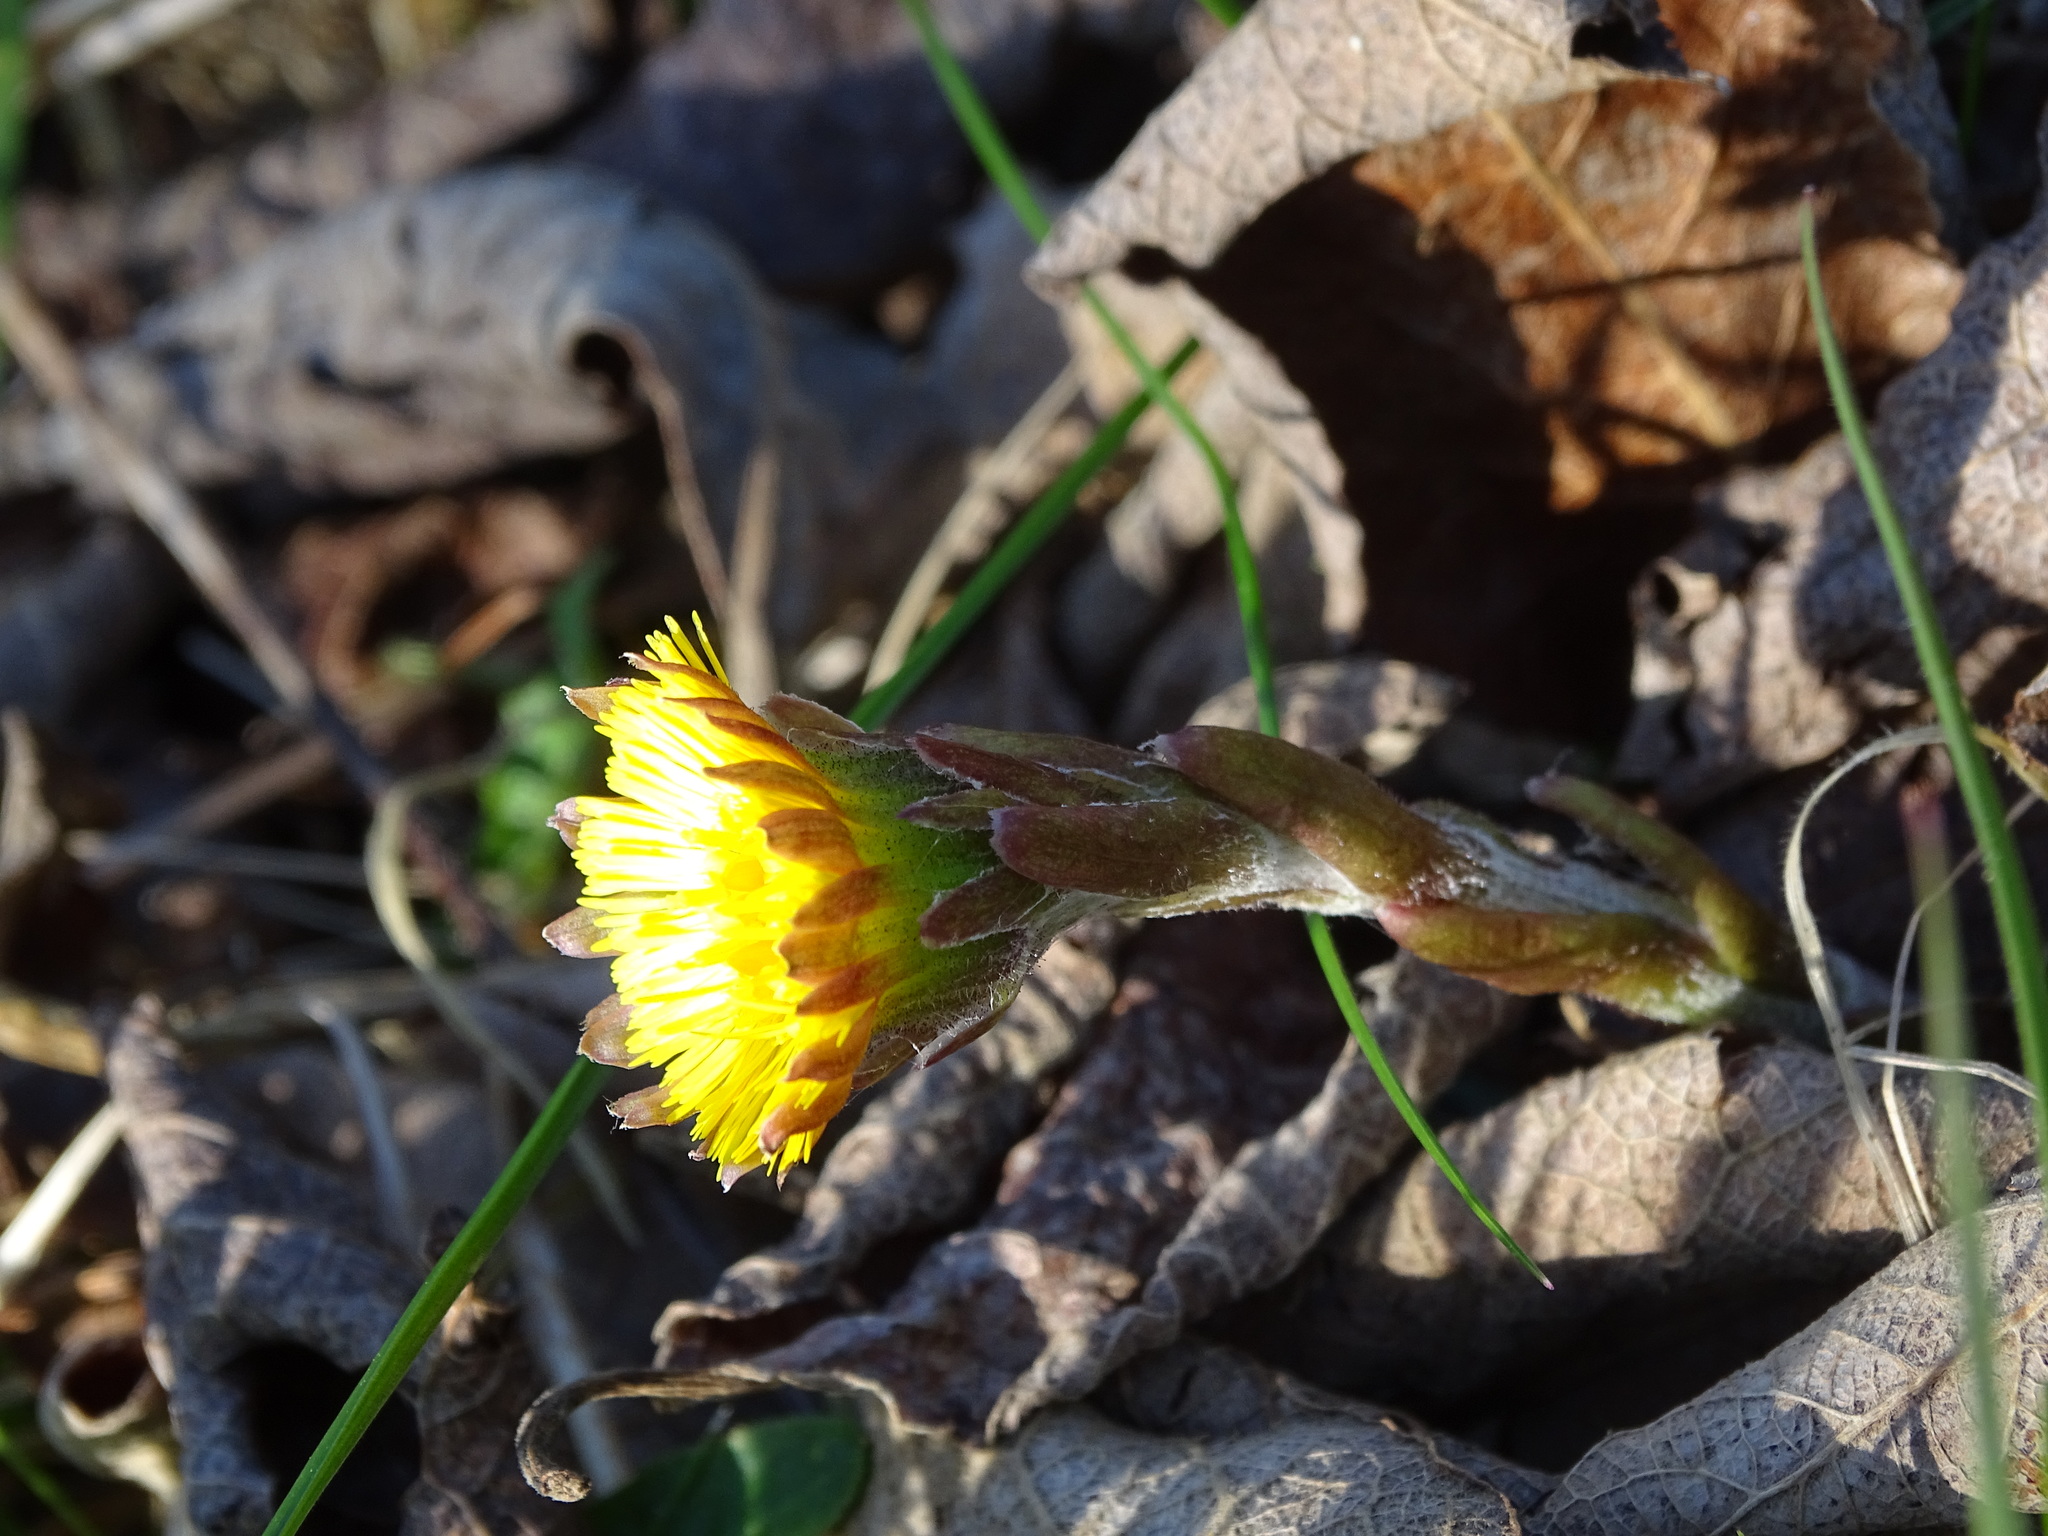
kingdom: Plantae
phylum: Tracheophyta
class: Magnoliopsida
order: Asterales
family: Asteraceae
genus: Tussilago
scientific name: Tussilago farfara
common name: Coltsfoot
